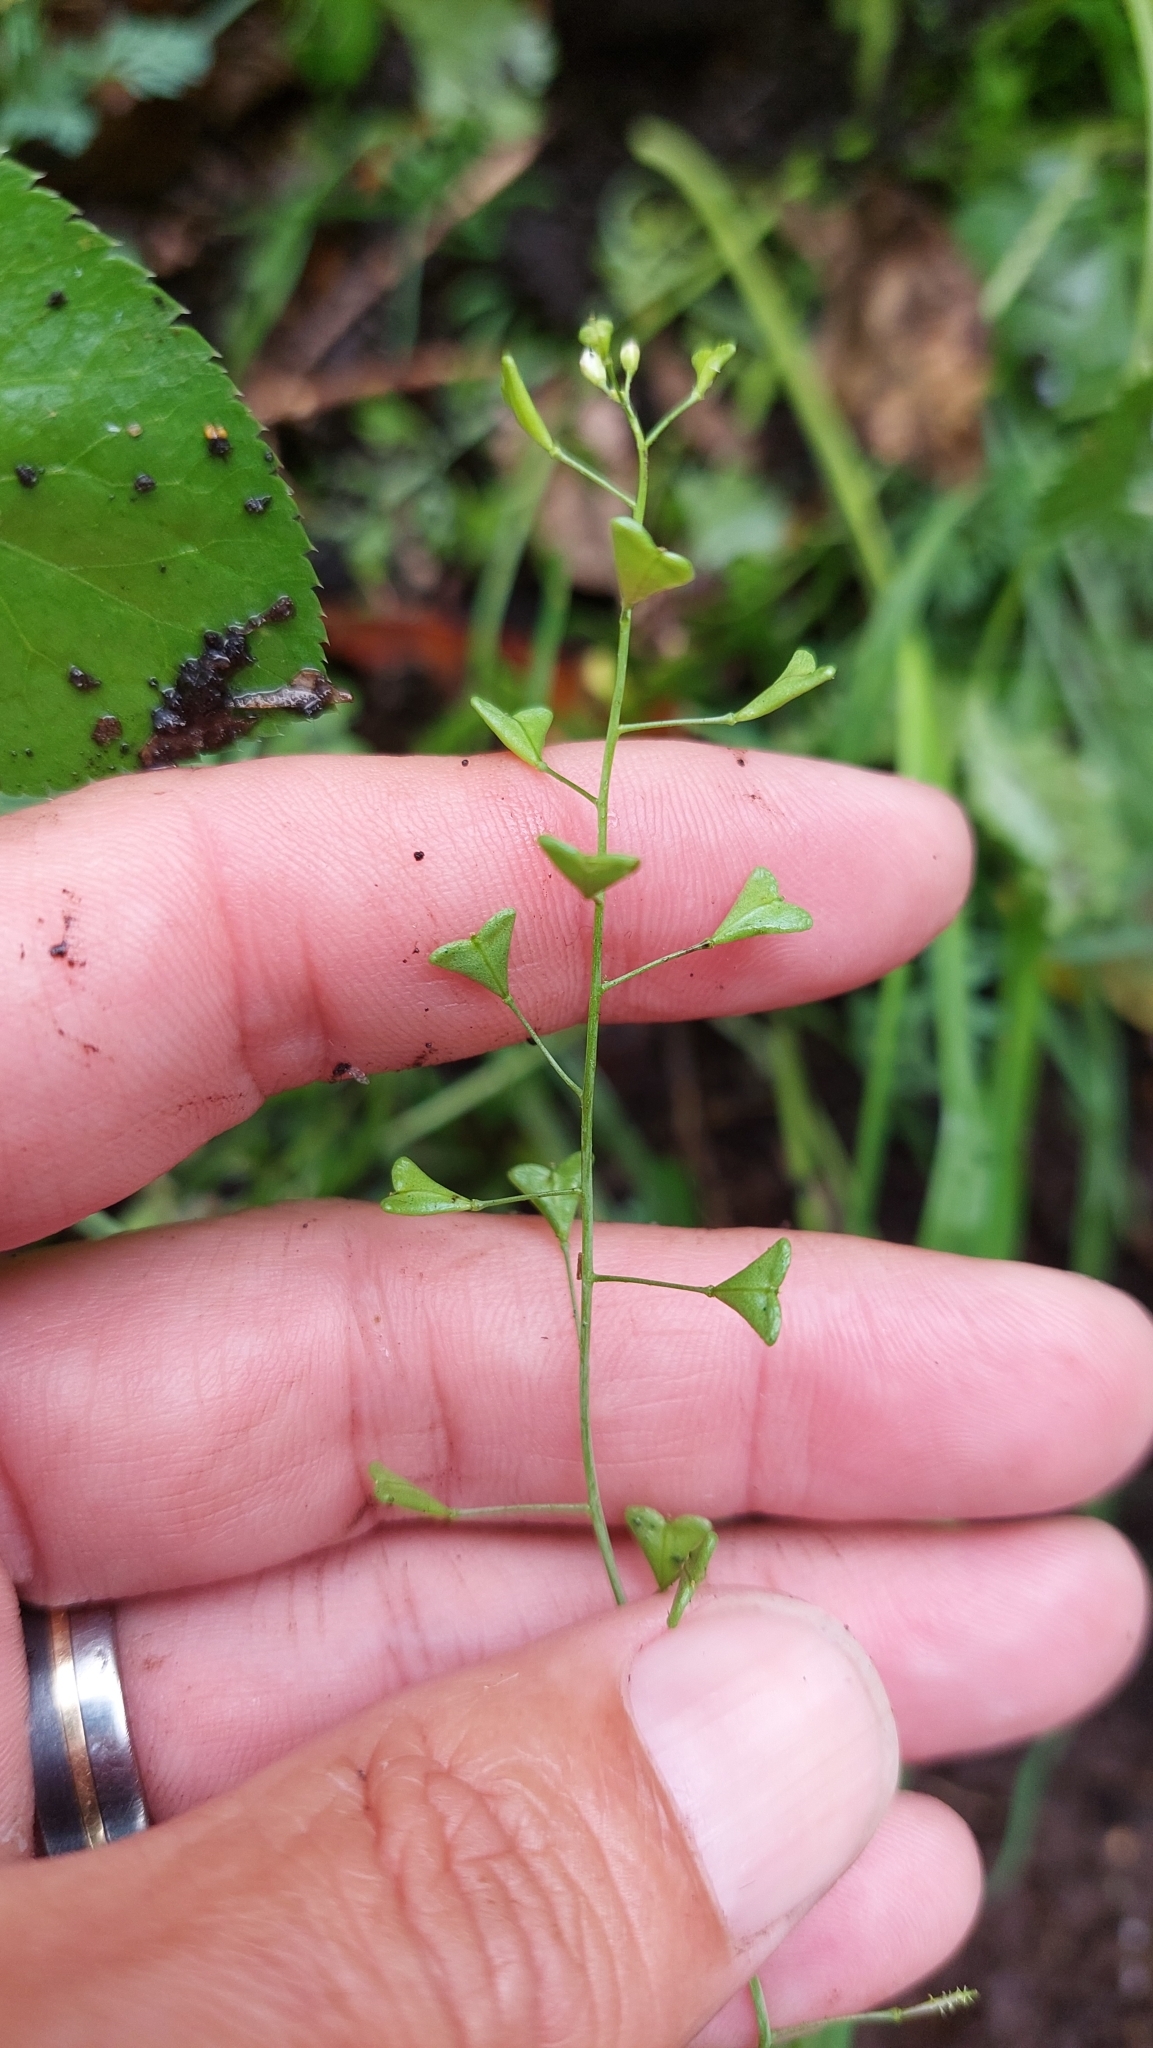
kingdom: Plantae
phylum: Tracheophyta
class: Magnoliopsida
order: Brassicales
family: Brassicaceae
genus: Capsella
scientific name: Capsella bursa-pastoris
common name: Shepherd's purse
